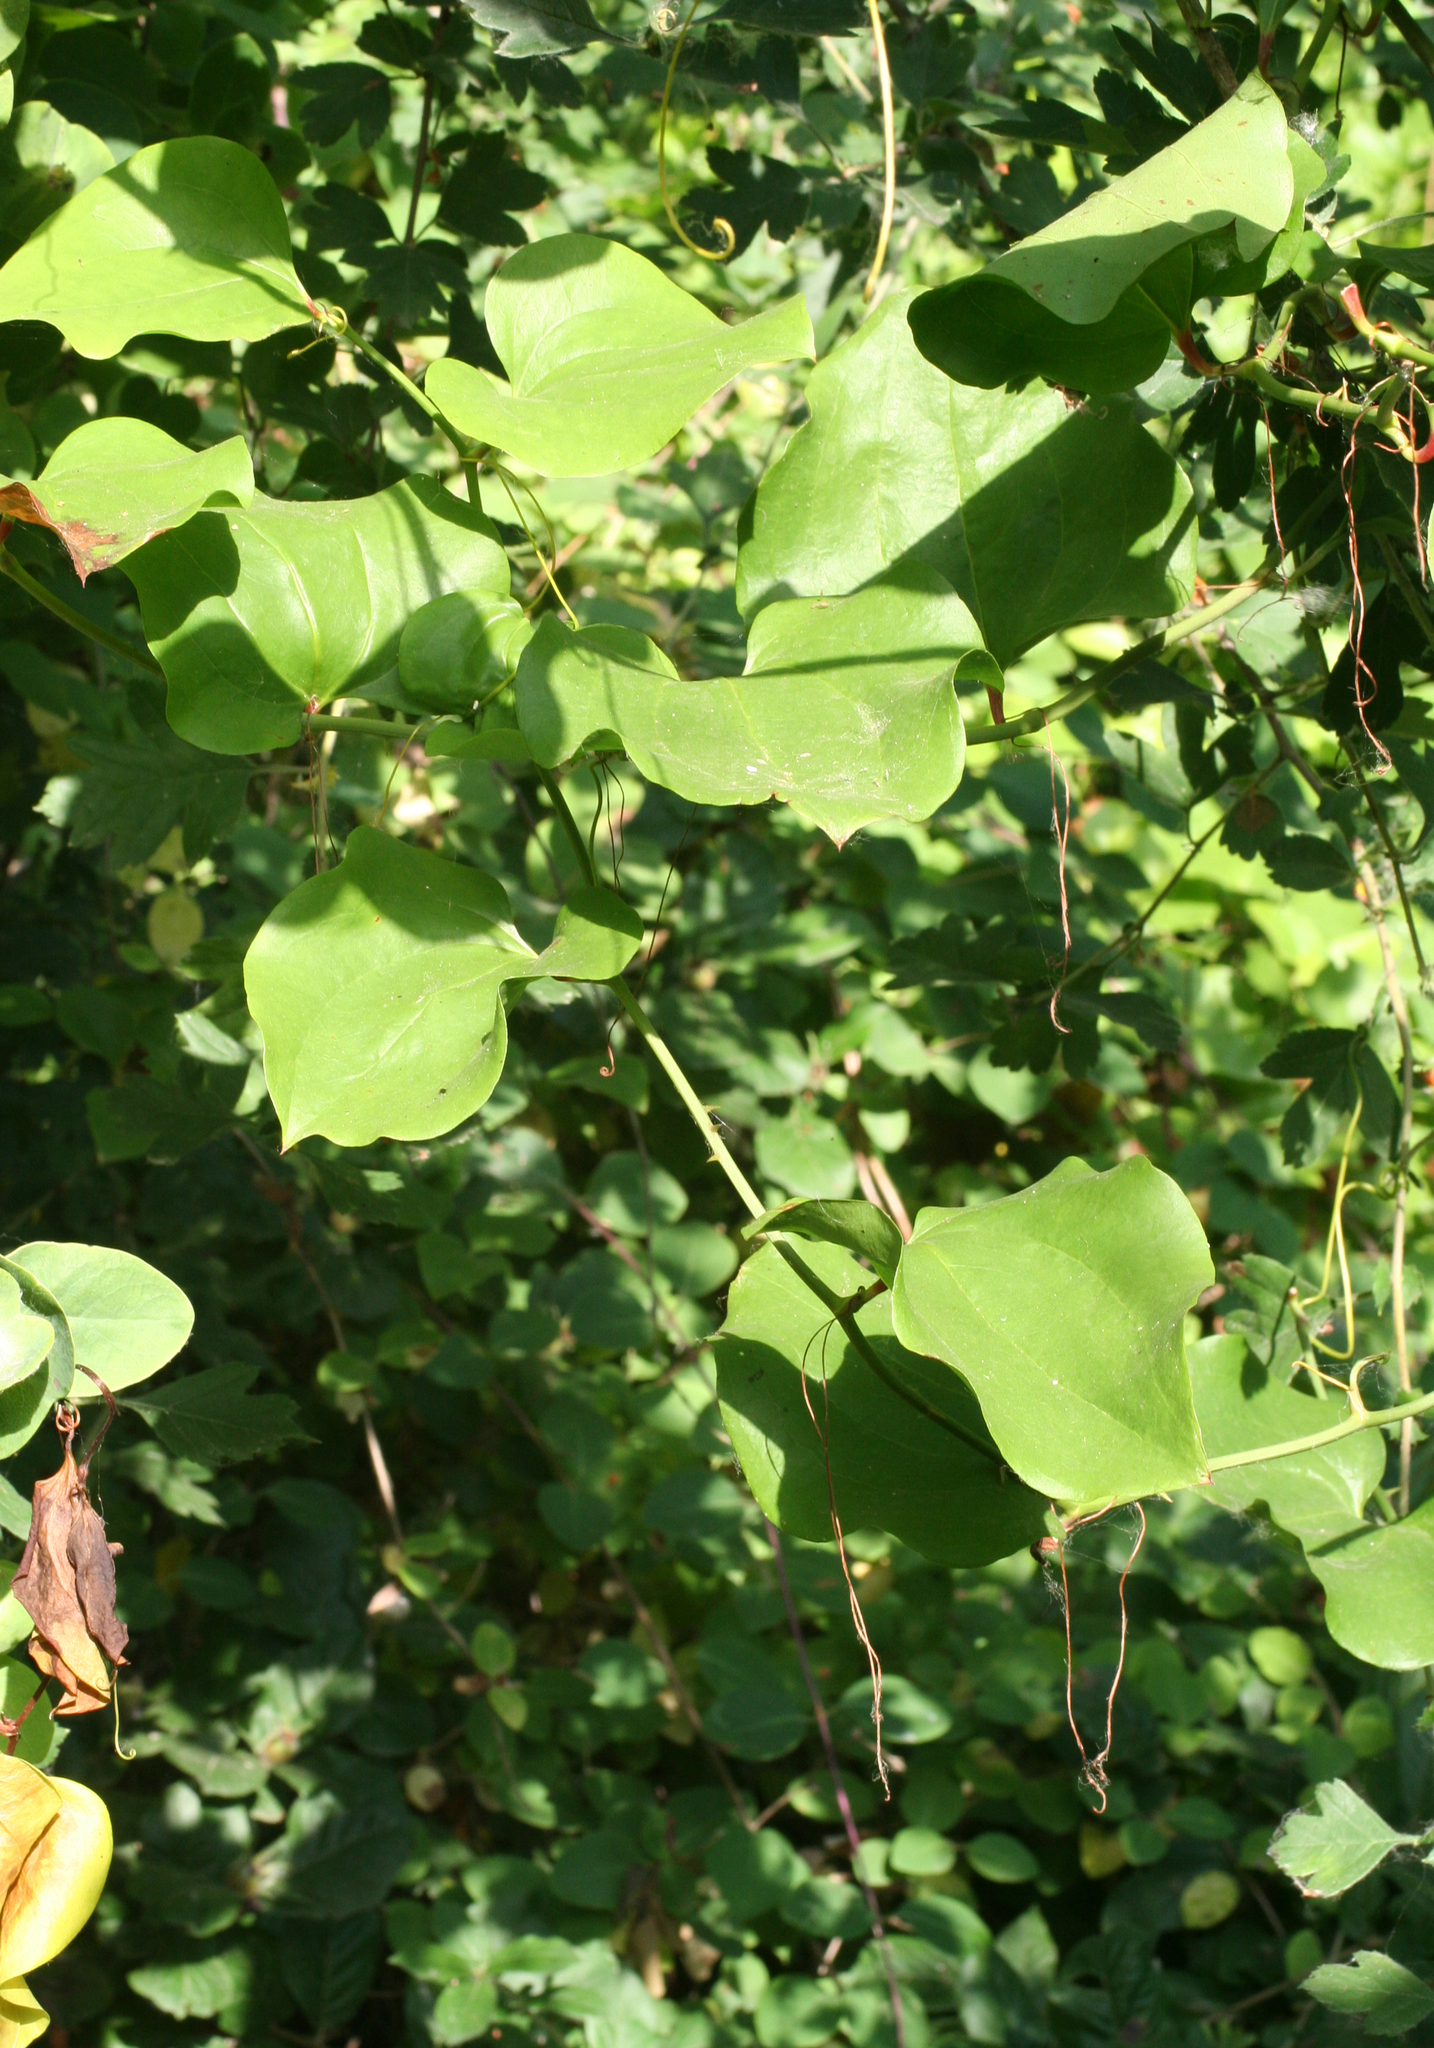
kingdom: Plantae
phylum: Tracheophyta
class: Liliopsida
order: Liliales
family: Smilacaceae
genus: Smilax
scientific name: Smilax excelsa
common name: Larger smilax
